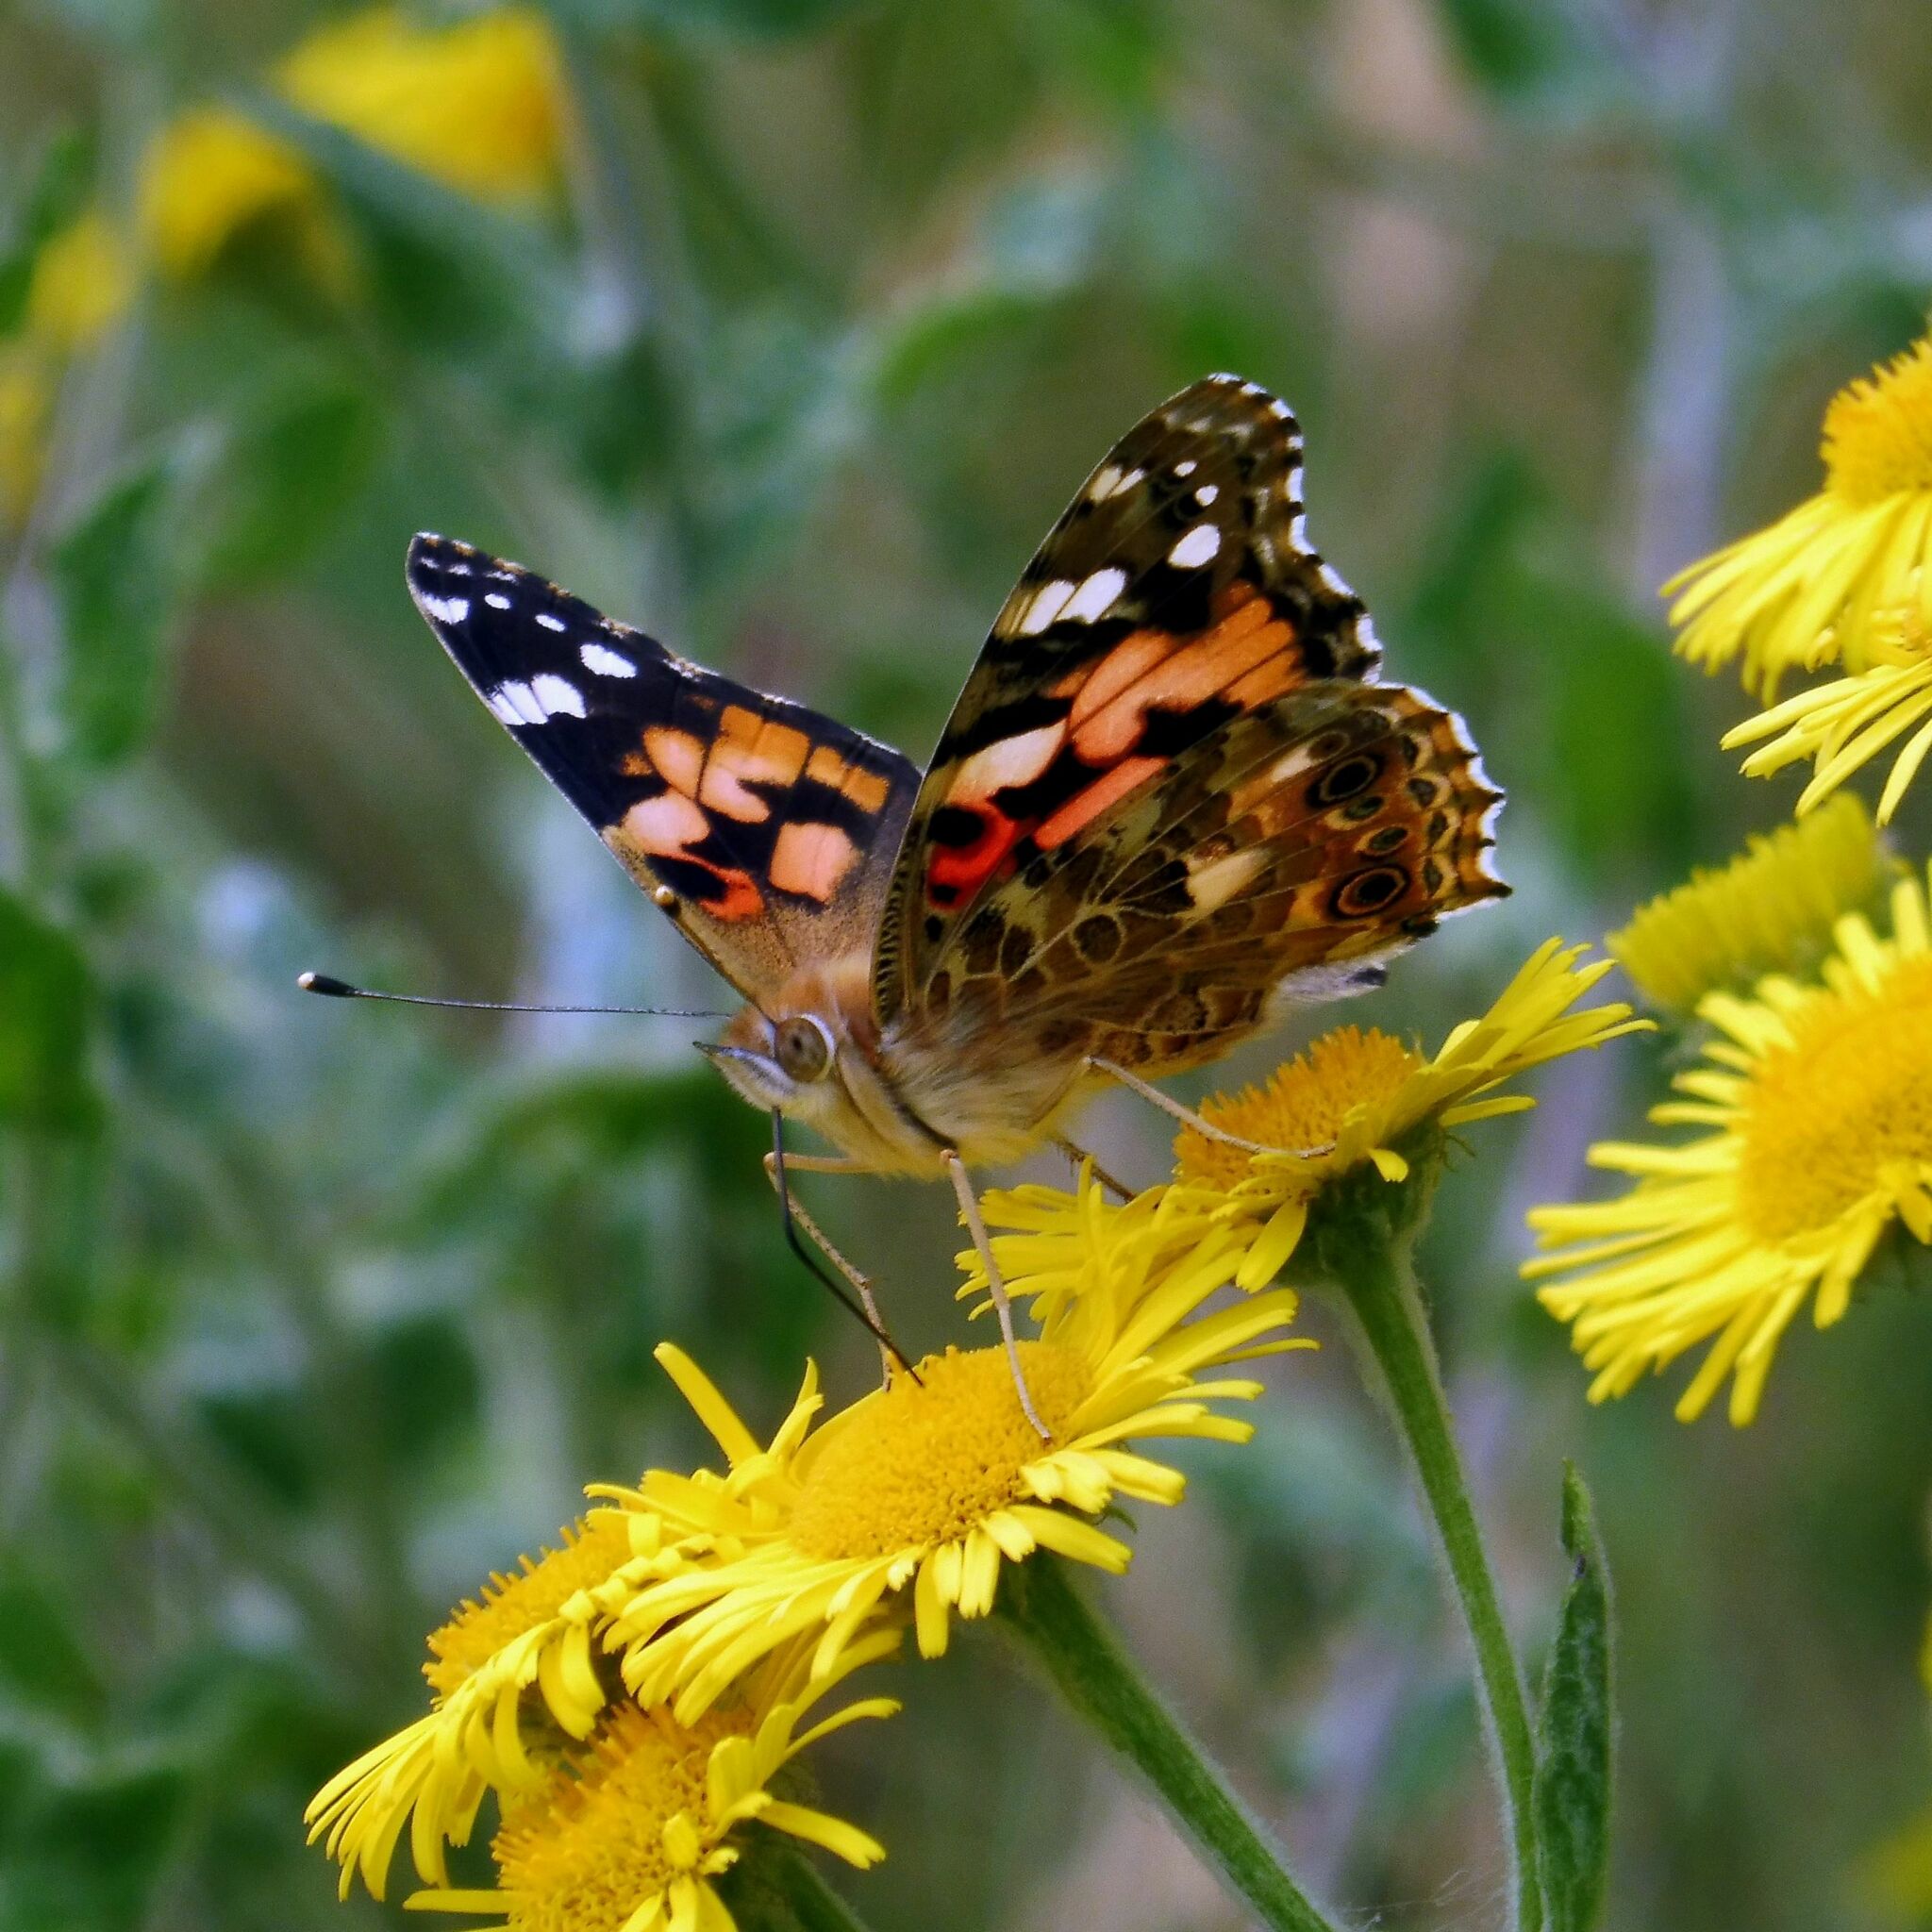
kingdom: Animalia
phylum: Arthropoda
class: Insecta
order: Lepidoptera
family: Nymphalidae
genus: Vanessa
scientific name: Vanessa cardui
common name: Painted lady
